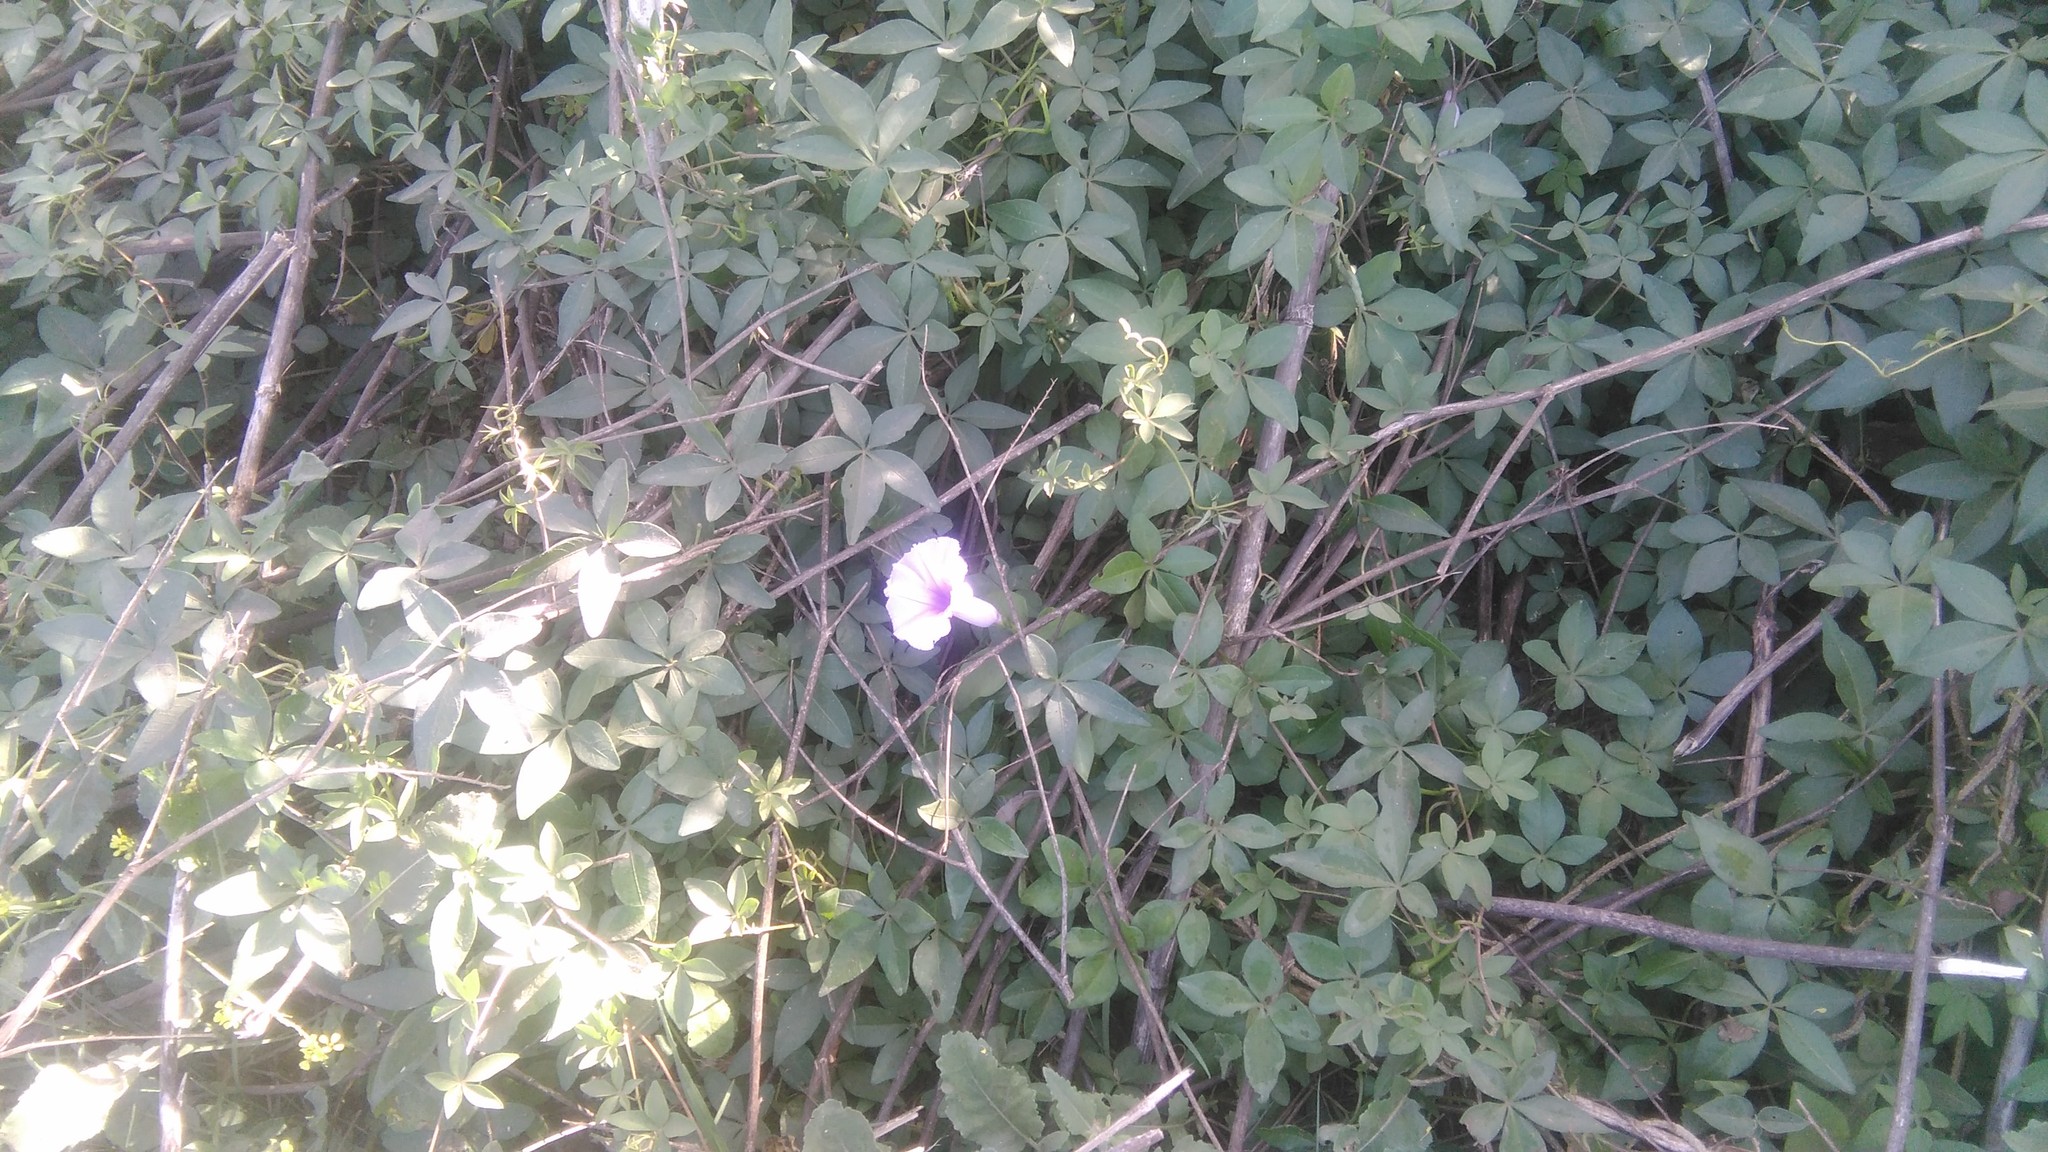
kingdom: Plantae
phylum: Tracheophyta
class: Magnoliopsida
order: Solanales
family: Convolvulaceae
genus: Ipomoea
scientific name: Ipomoea cairica
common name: Mile a minute vine
